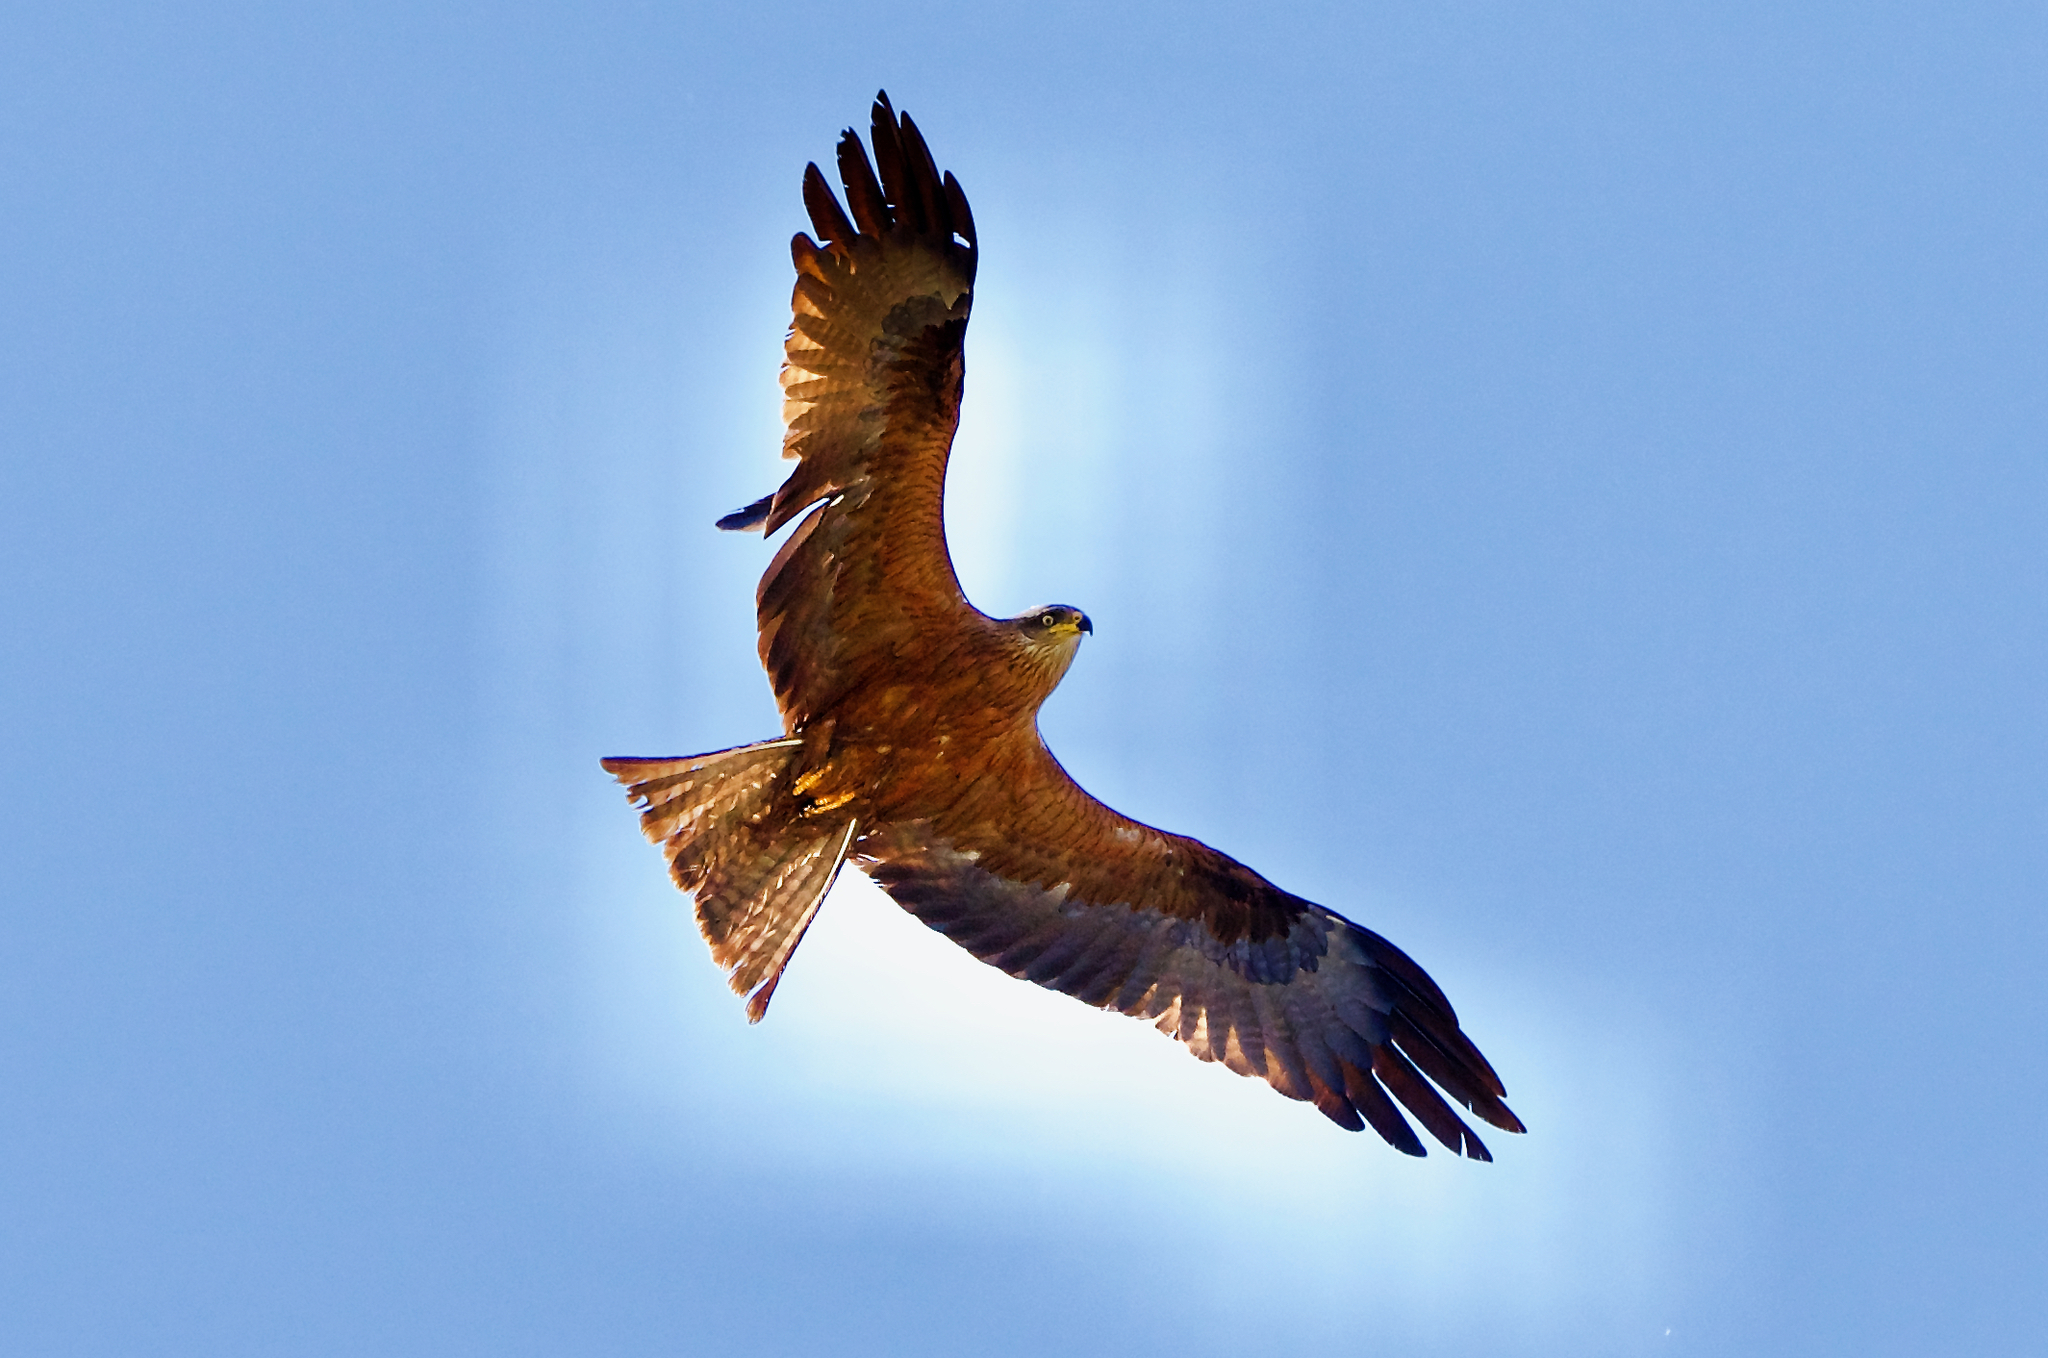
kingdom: Animalia
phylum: Chordata
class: Aves
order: Accipitriformes
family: Accipitridae
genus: Milvus
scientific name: Milvus migrans
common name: Black kite
